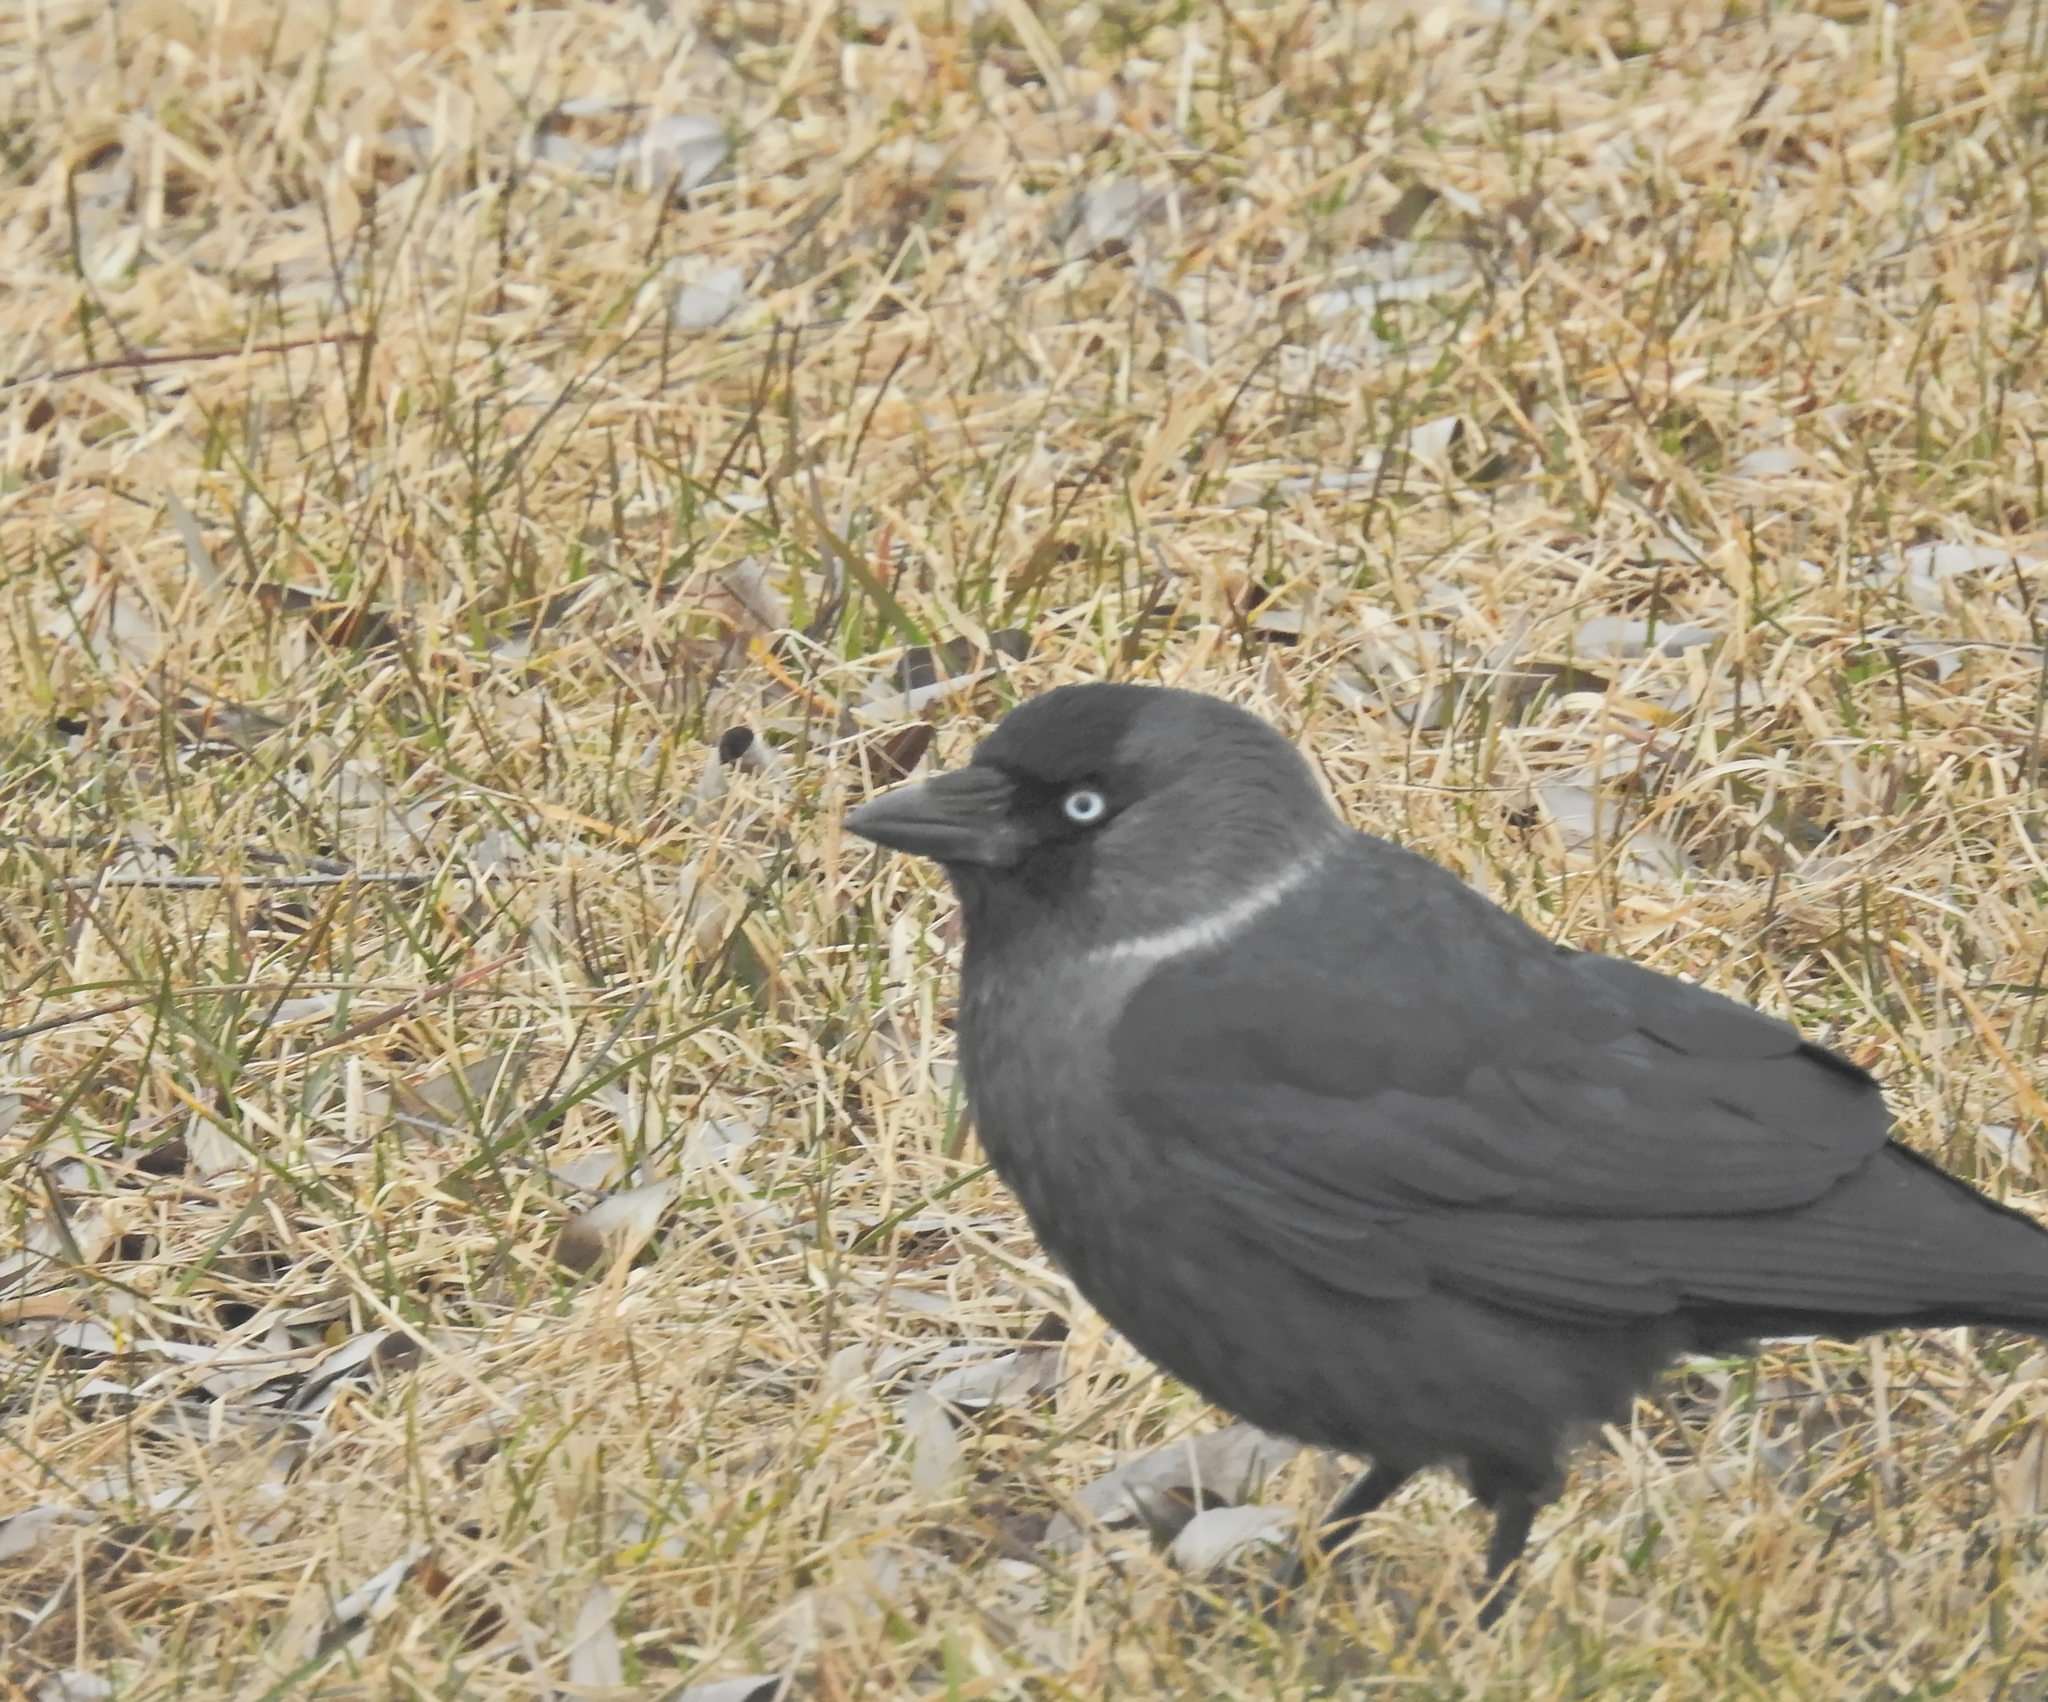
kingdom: Animalia
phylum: Chordata
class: Aves
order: Passeriformes
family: Corvidae
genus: Coloeus
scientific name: Coloeus monedula
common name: Western jackdaw
